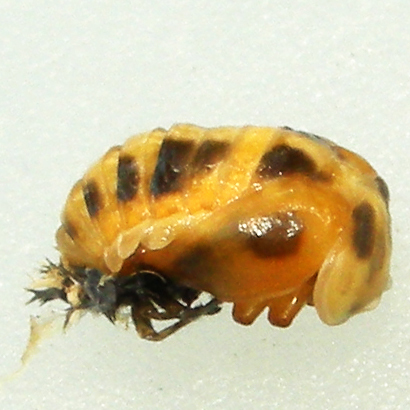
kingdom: Animalia
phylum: Arthropoda
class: Insecta
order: Coleoptera
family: Coccinellidae
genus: Harmonia
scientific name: Harmonia axyridis
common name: Harlequin ladybird
